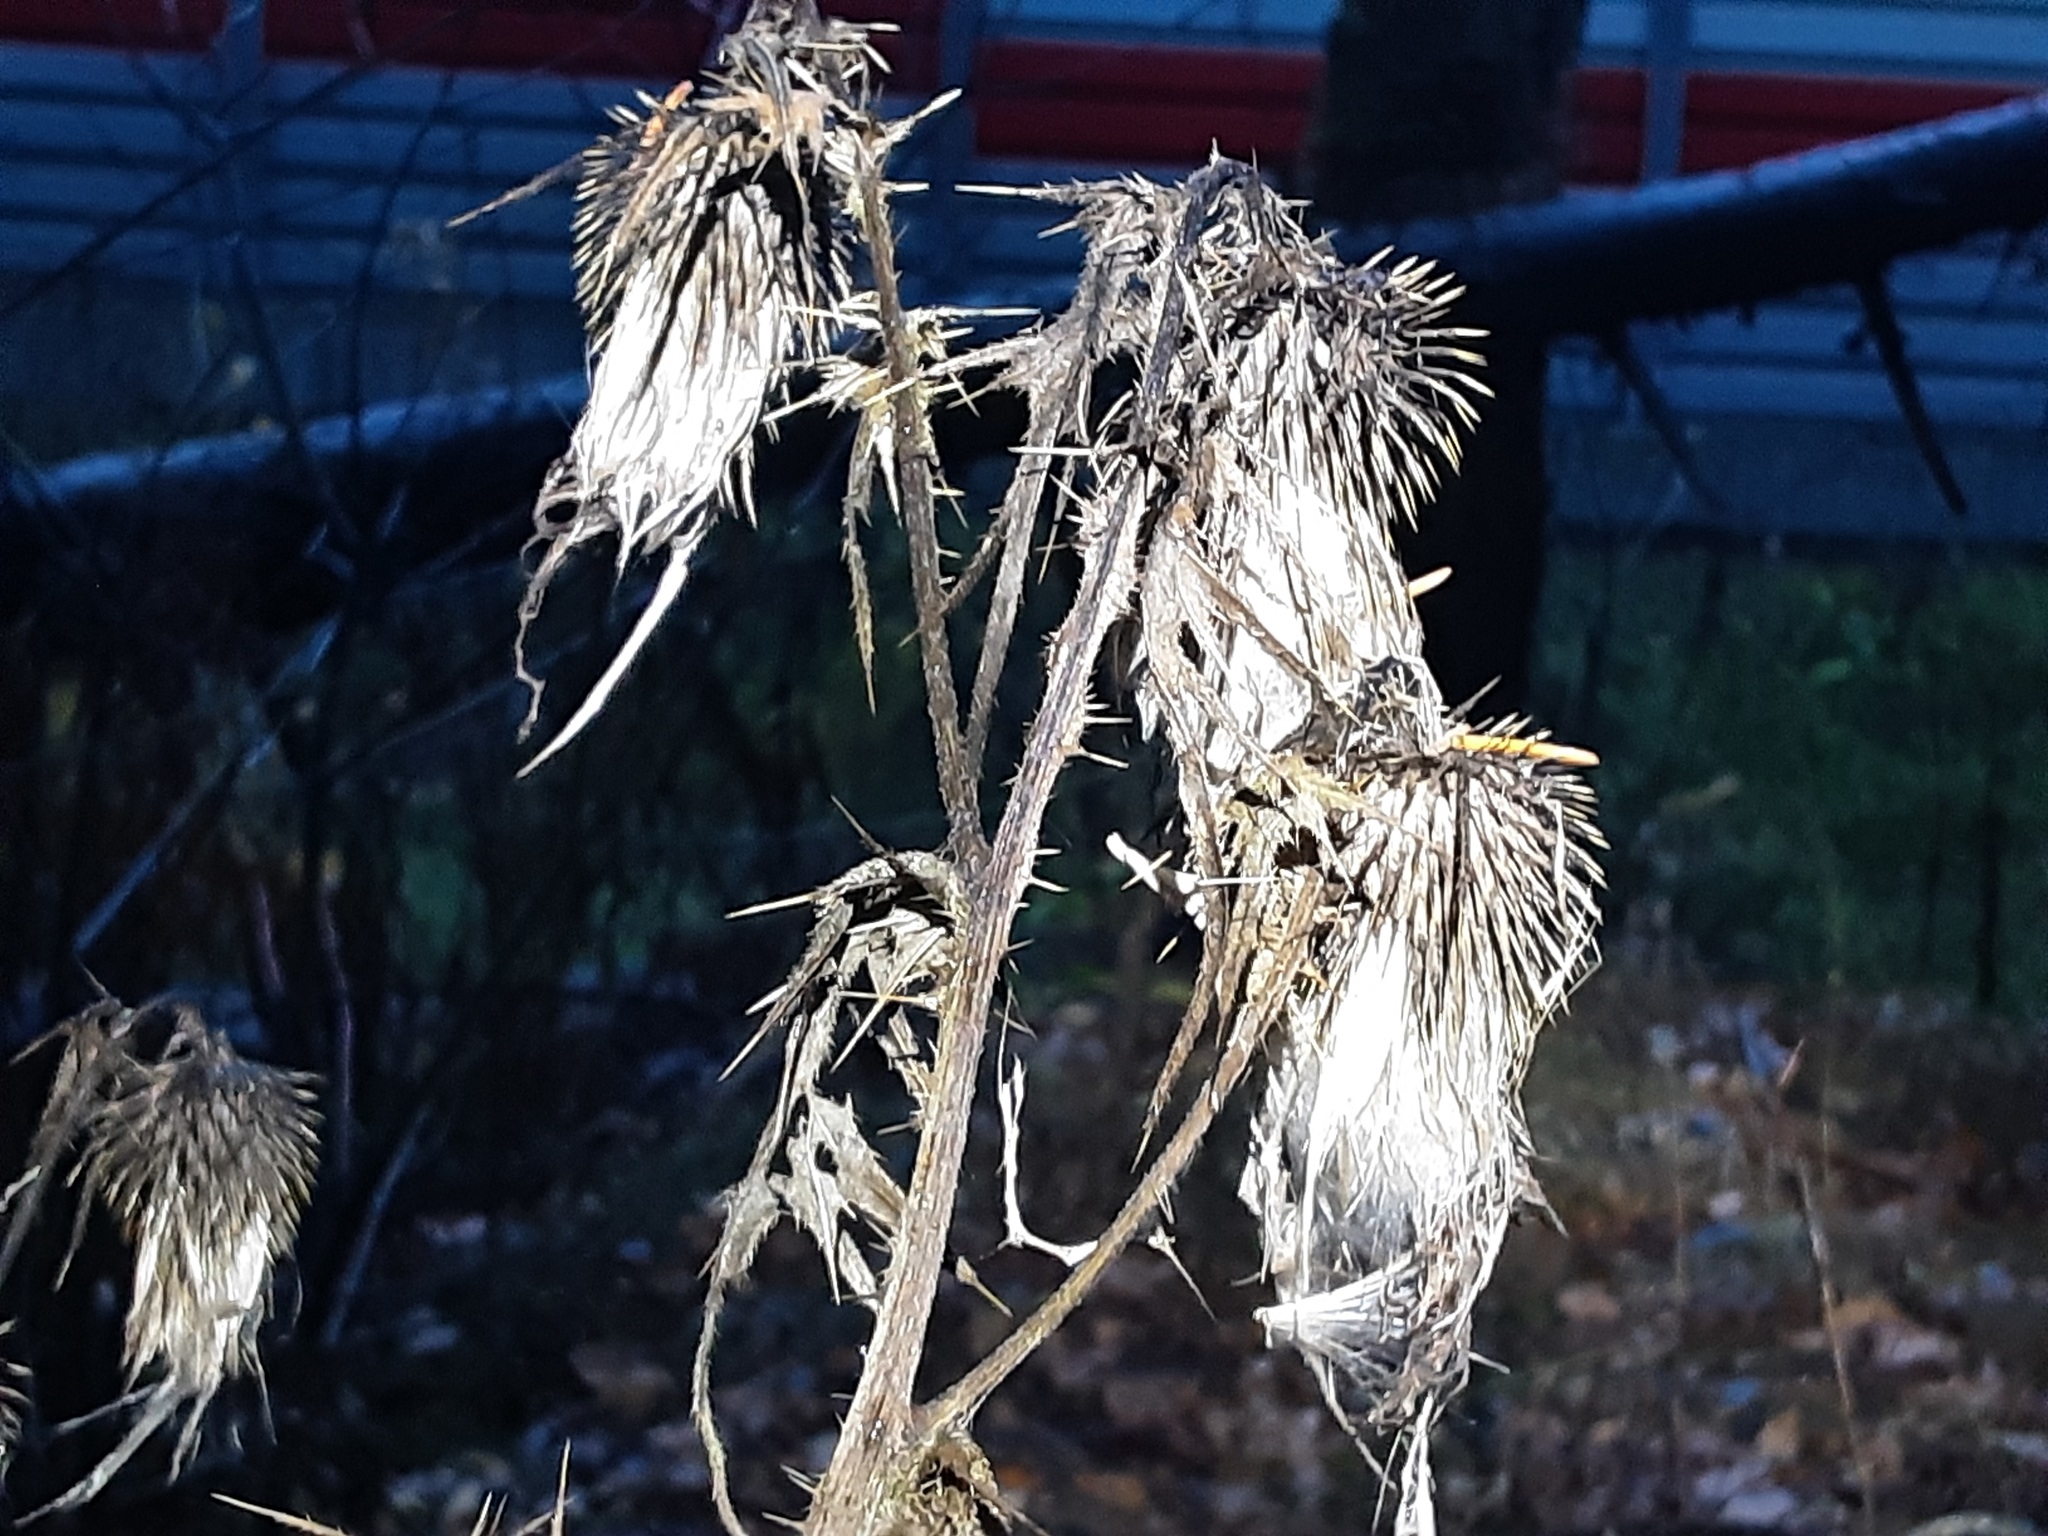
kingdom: Plantae
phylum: Tracheophyta
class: Magnoliopsida
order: Asterales
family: Asteraceae
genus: Cirsium
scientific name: Cirsium vulgare
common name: Bull thistle
